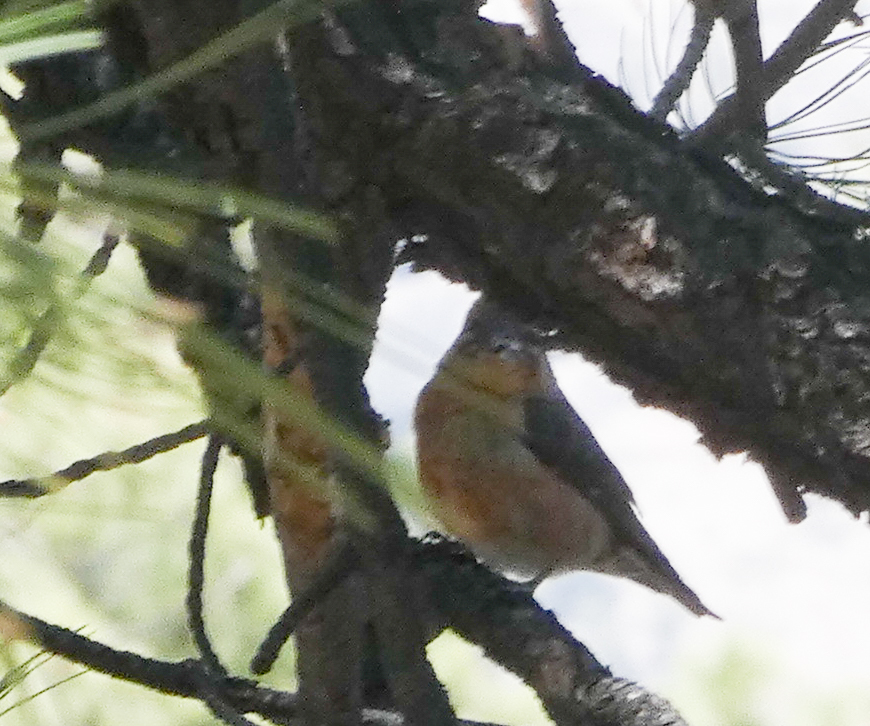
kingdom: Animalia
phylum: Chordata
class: Aves
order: Passeriformes
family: Fringillidae
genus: Loxia
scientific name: Loxia curvirostra
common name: Red crossbill
